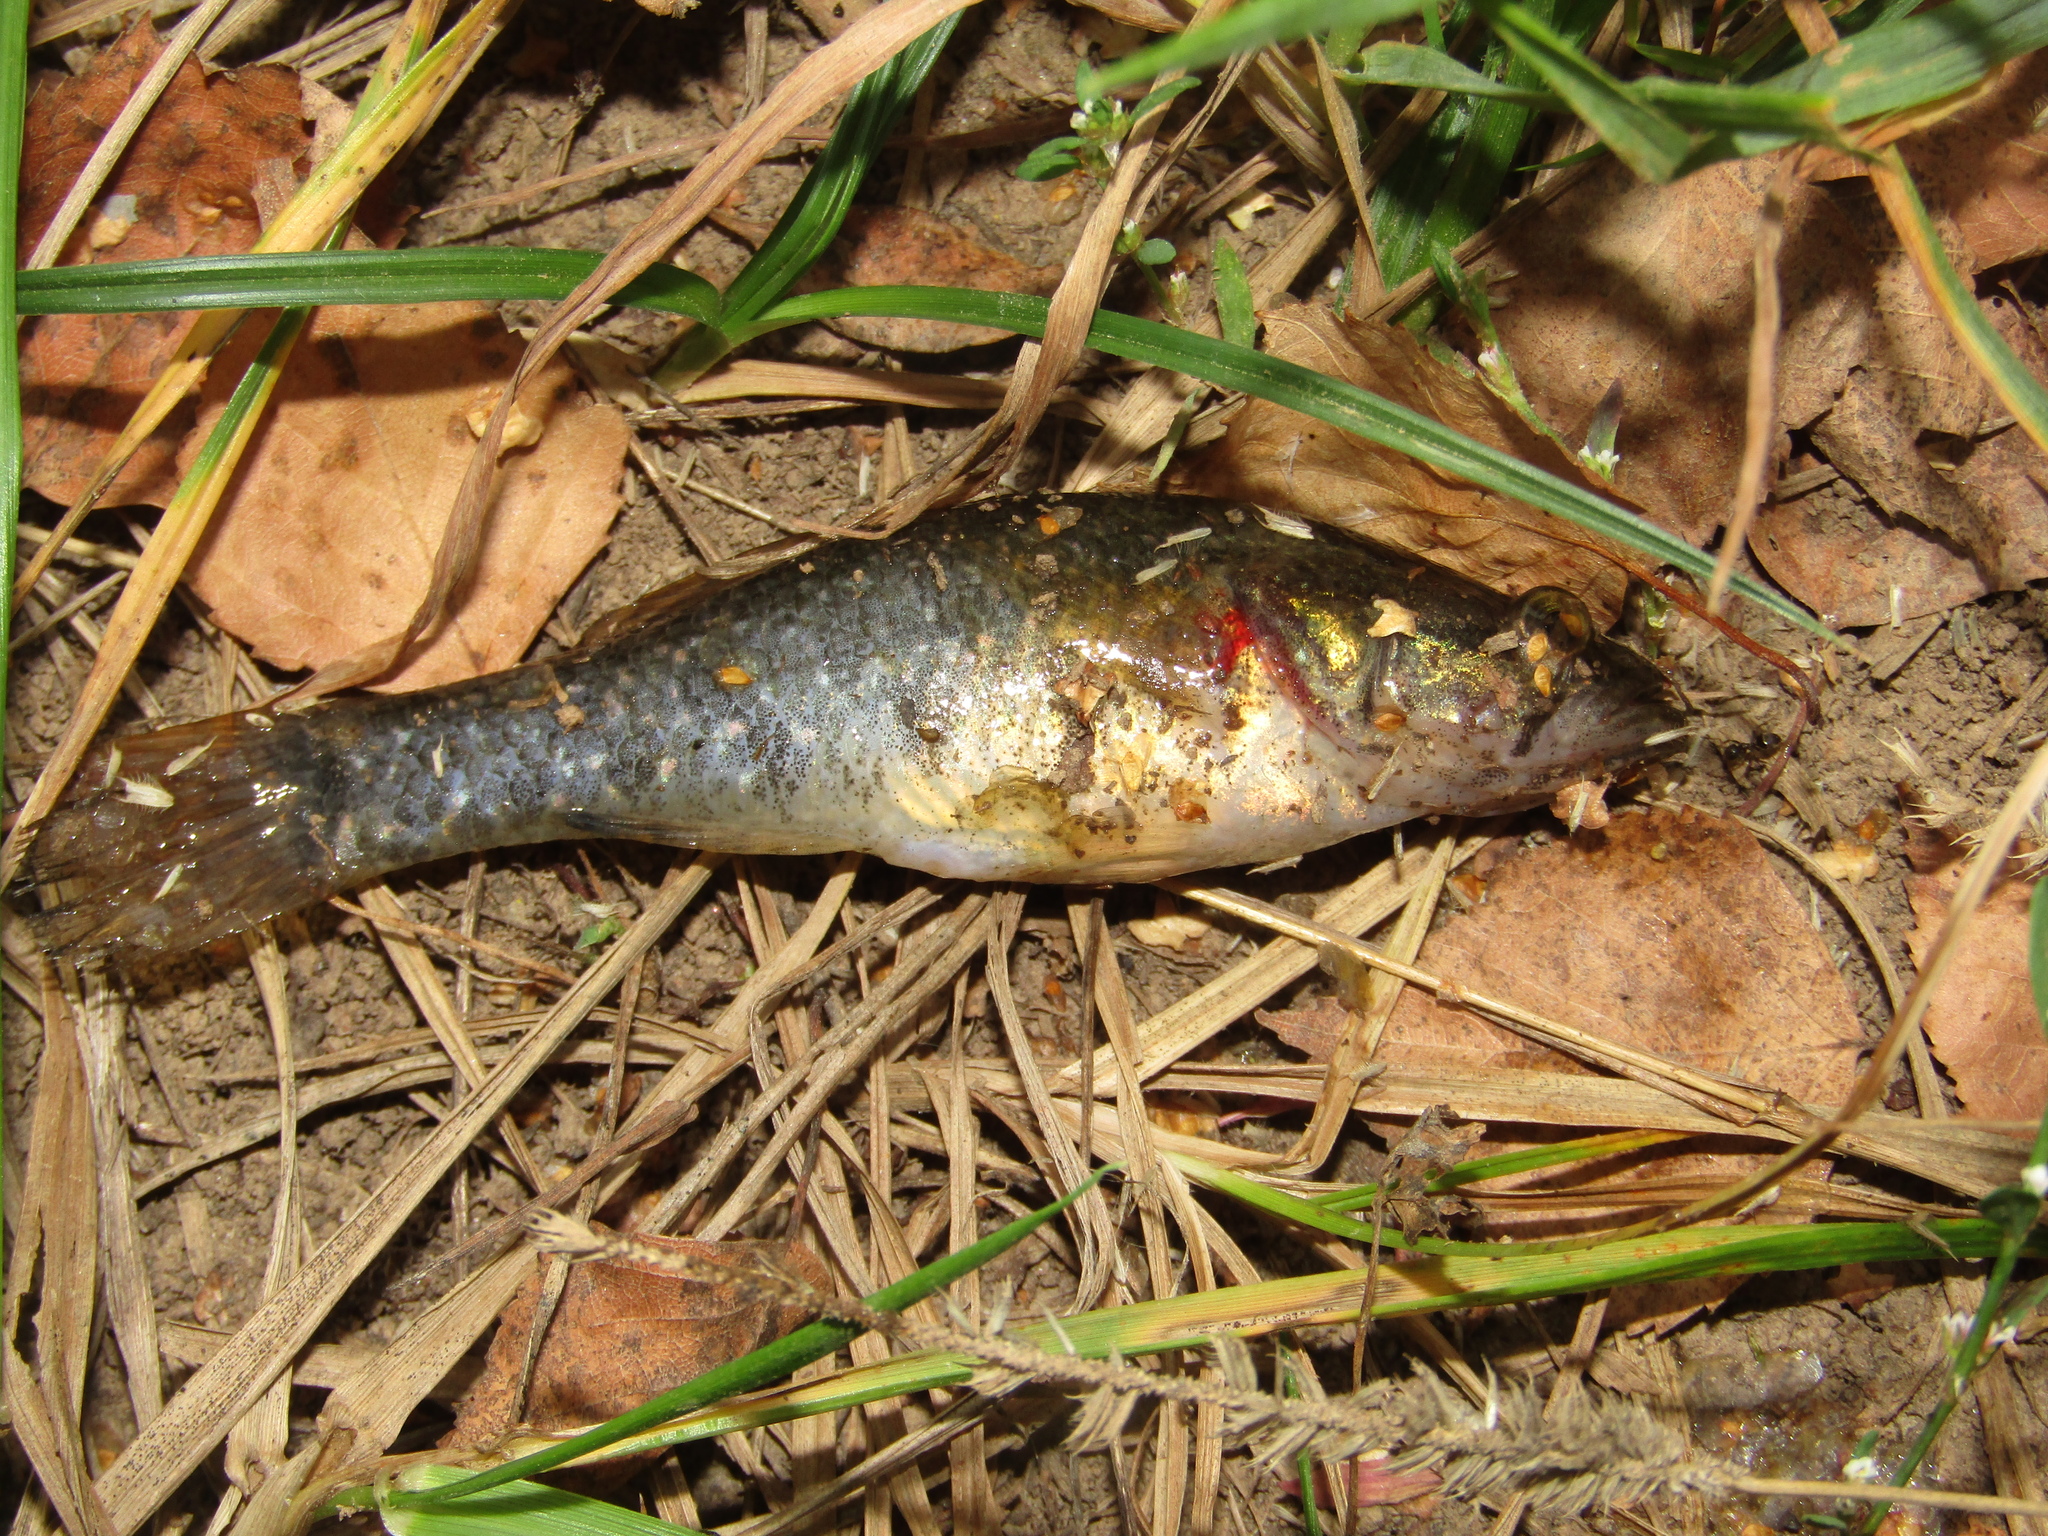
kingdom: Animalia
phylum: Chordata
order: Perciformes
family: Odontobutidae
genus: Perccottus
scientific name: Perccottus glenii
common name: Amur sleeper
